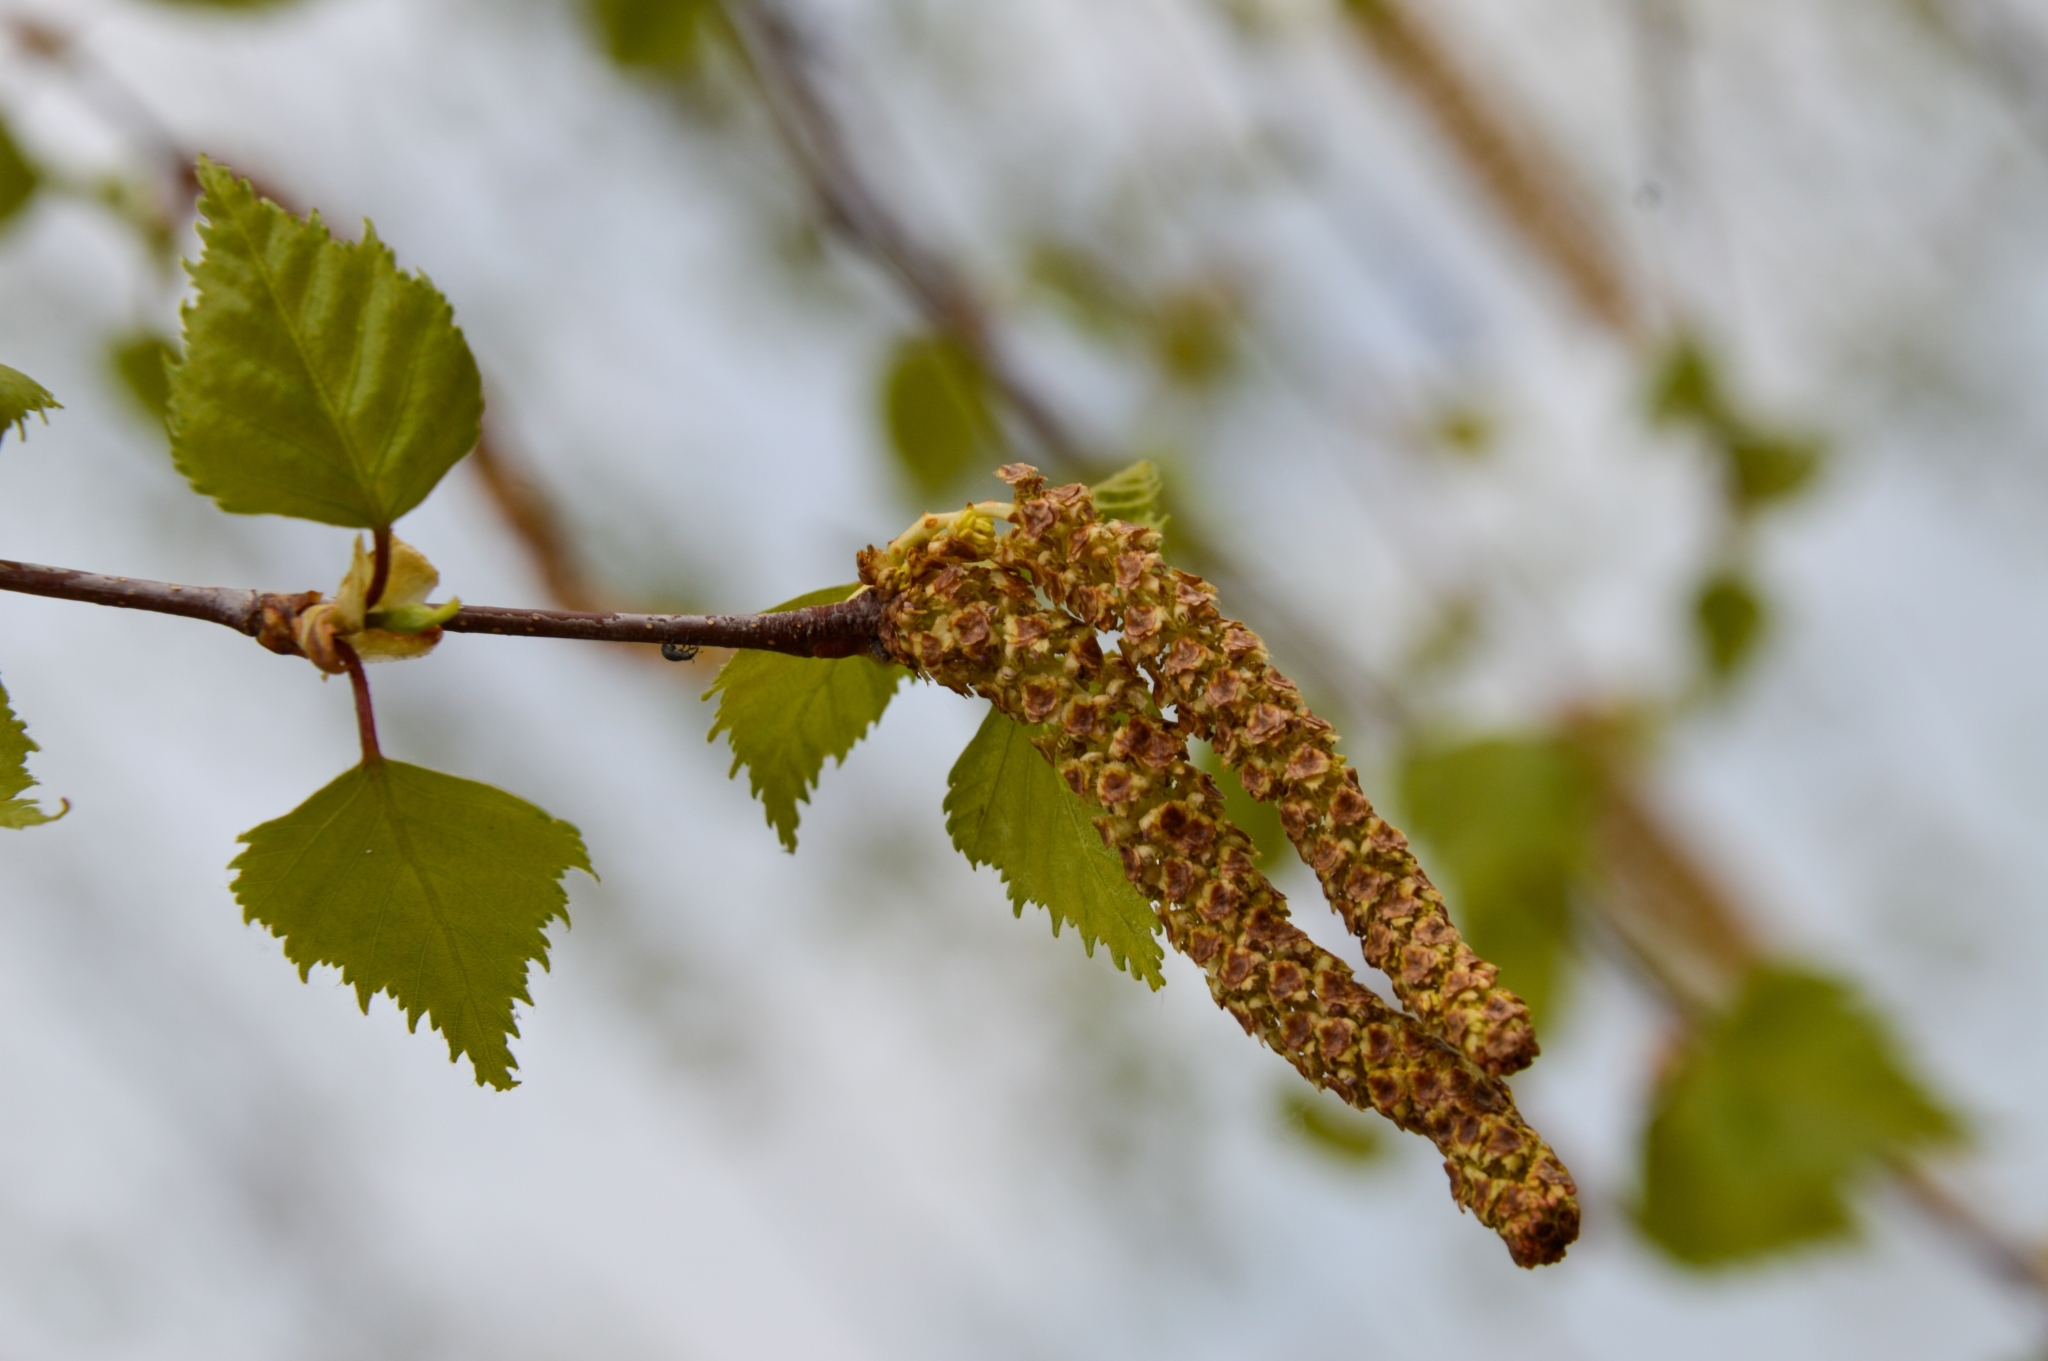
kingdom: Plantae
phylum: Tracheophyta
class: Magnoliopsida
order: Fagales
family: Betulaceae
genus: Betula
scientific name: Betula pendula
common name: Silver birch
